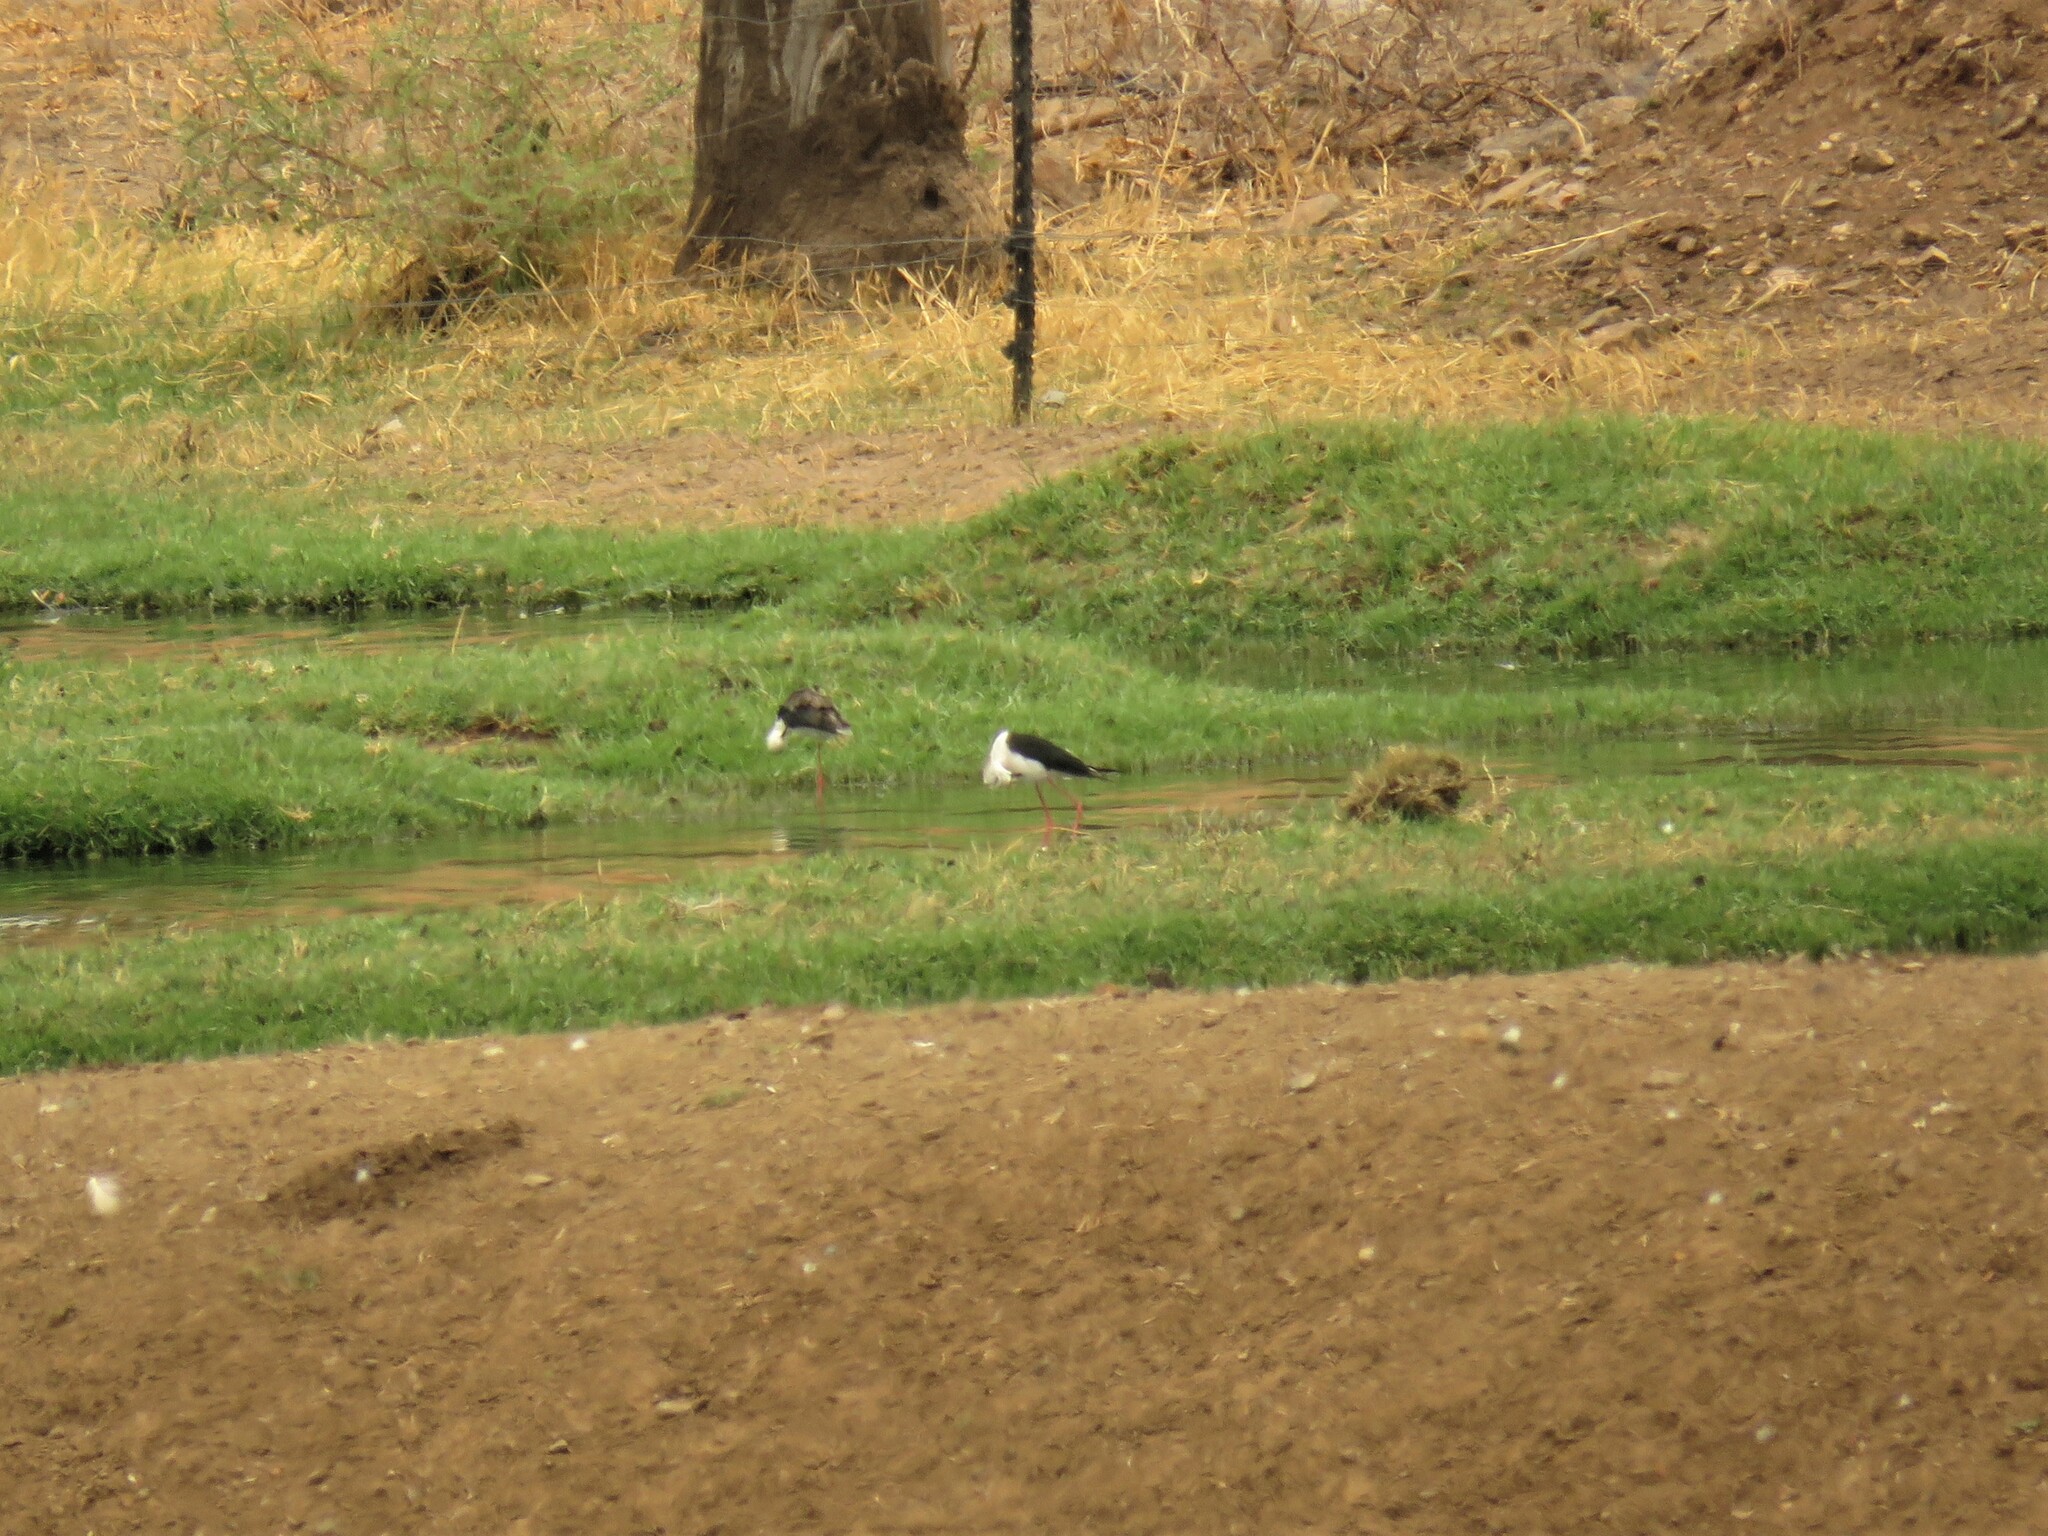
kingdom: Animalia
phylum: Chordata
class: Aves
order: Charadriiformes
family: Recurvirostridae
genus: Himantopus
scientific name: Himantopus himantopus
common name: Black-winged stilt
